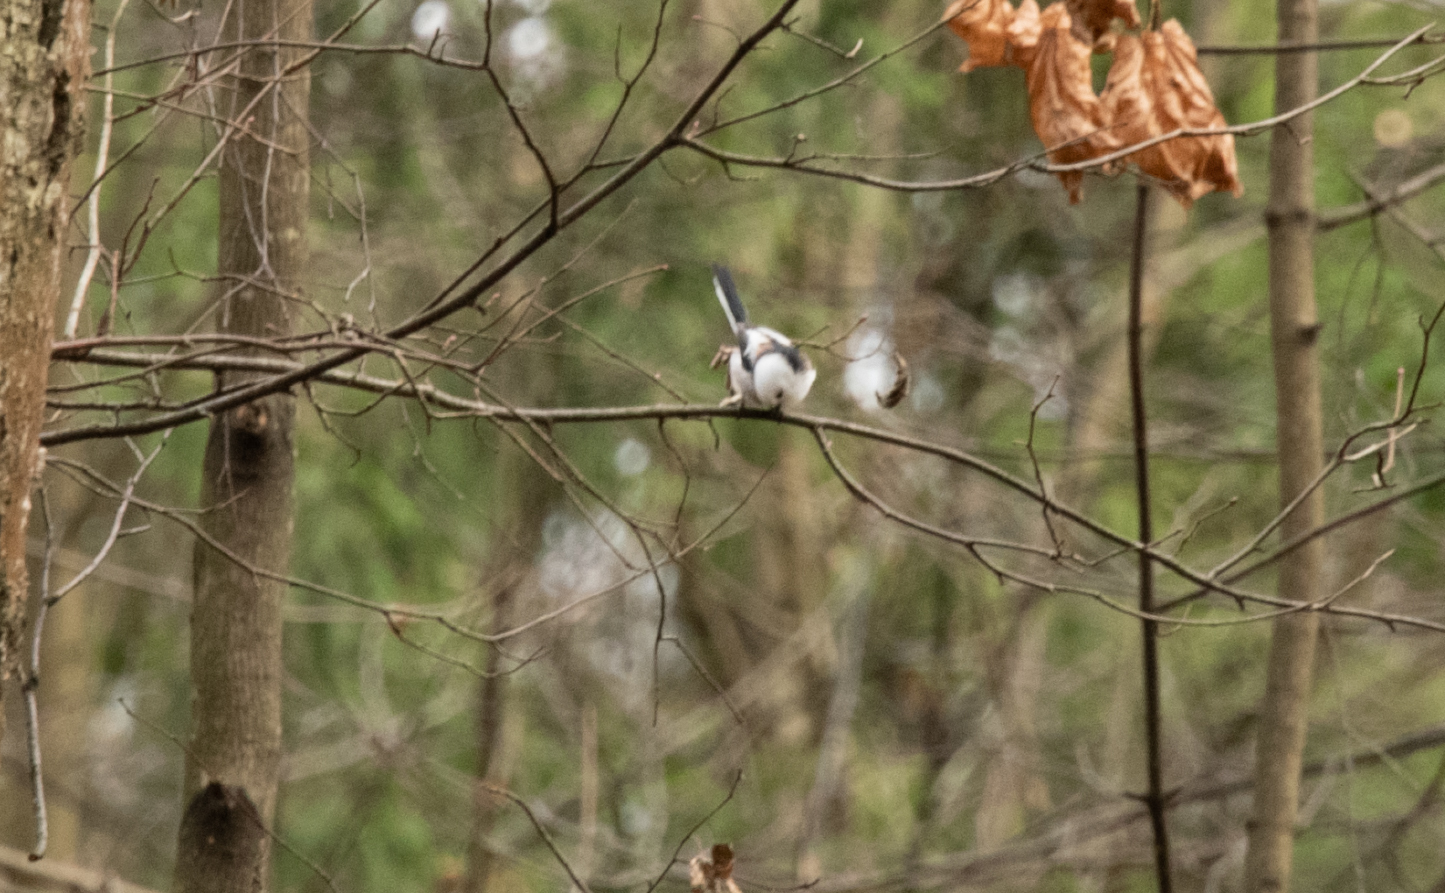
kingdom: Animalia
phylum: Chordata
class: Aves
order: Passeriformes
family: Aegithalidae
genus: Aegithalos
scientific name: Aegithalos caudatus
